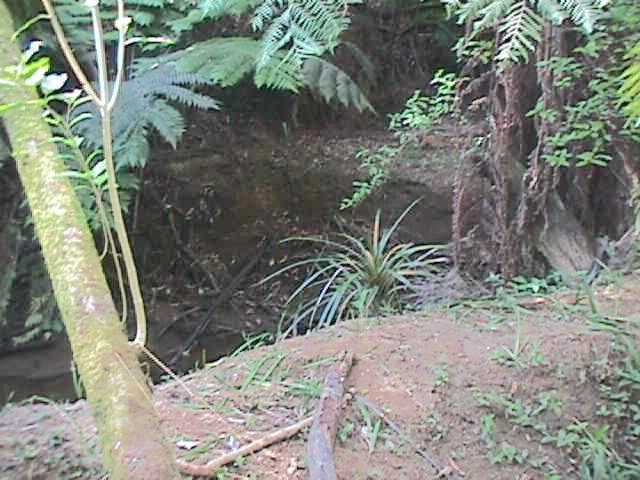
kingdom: Plantae
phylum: Tracheophyta
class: Magnoliopsida
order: Malpighiales
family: Violaceae
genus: Melicytus
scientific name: Melicytus ramiflorus
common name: Mahoe
